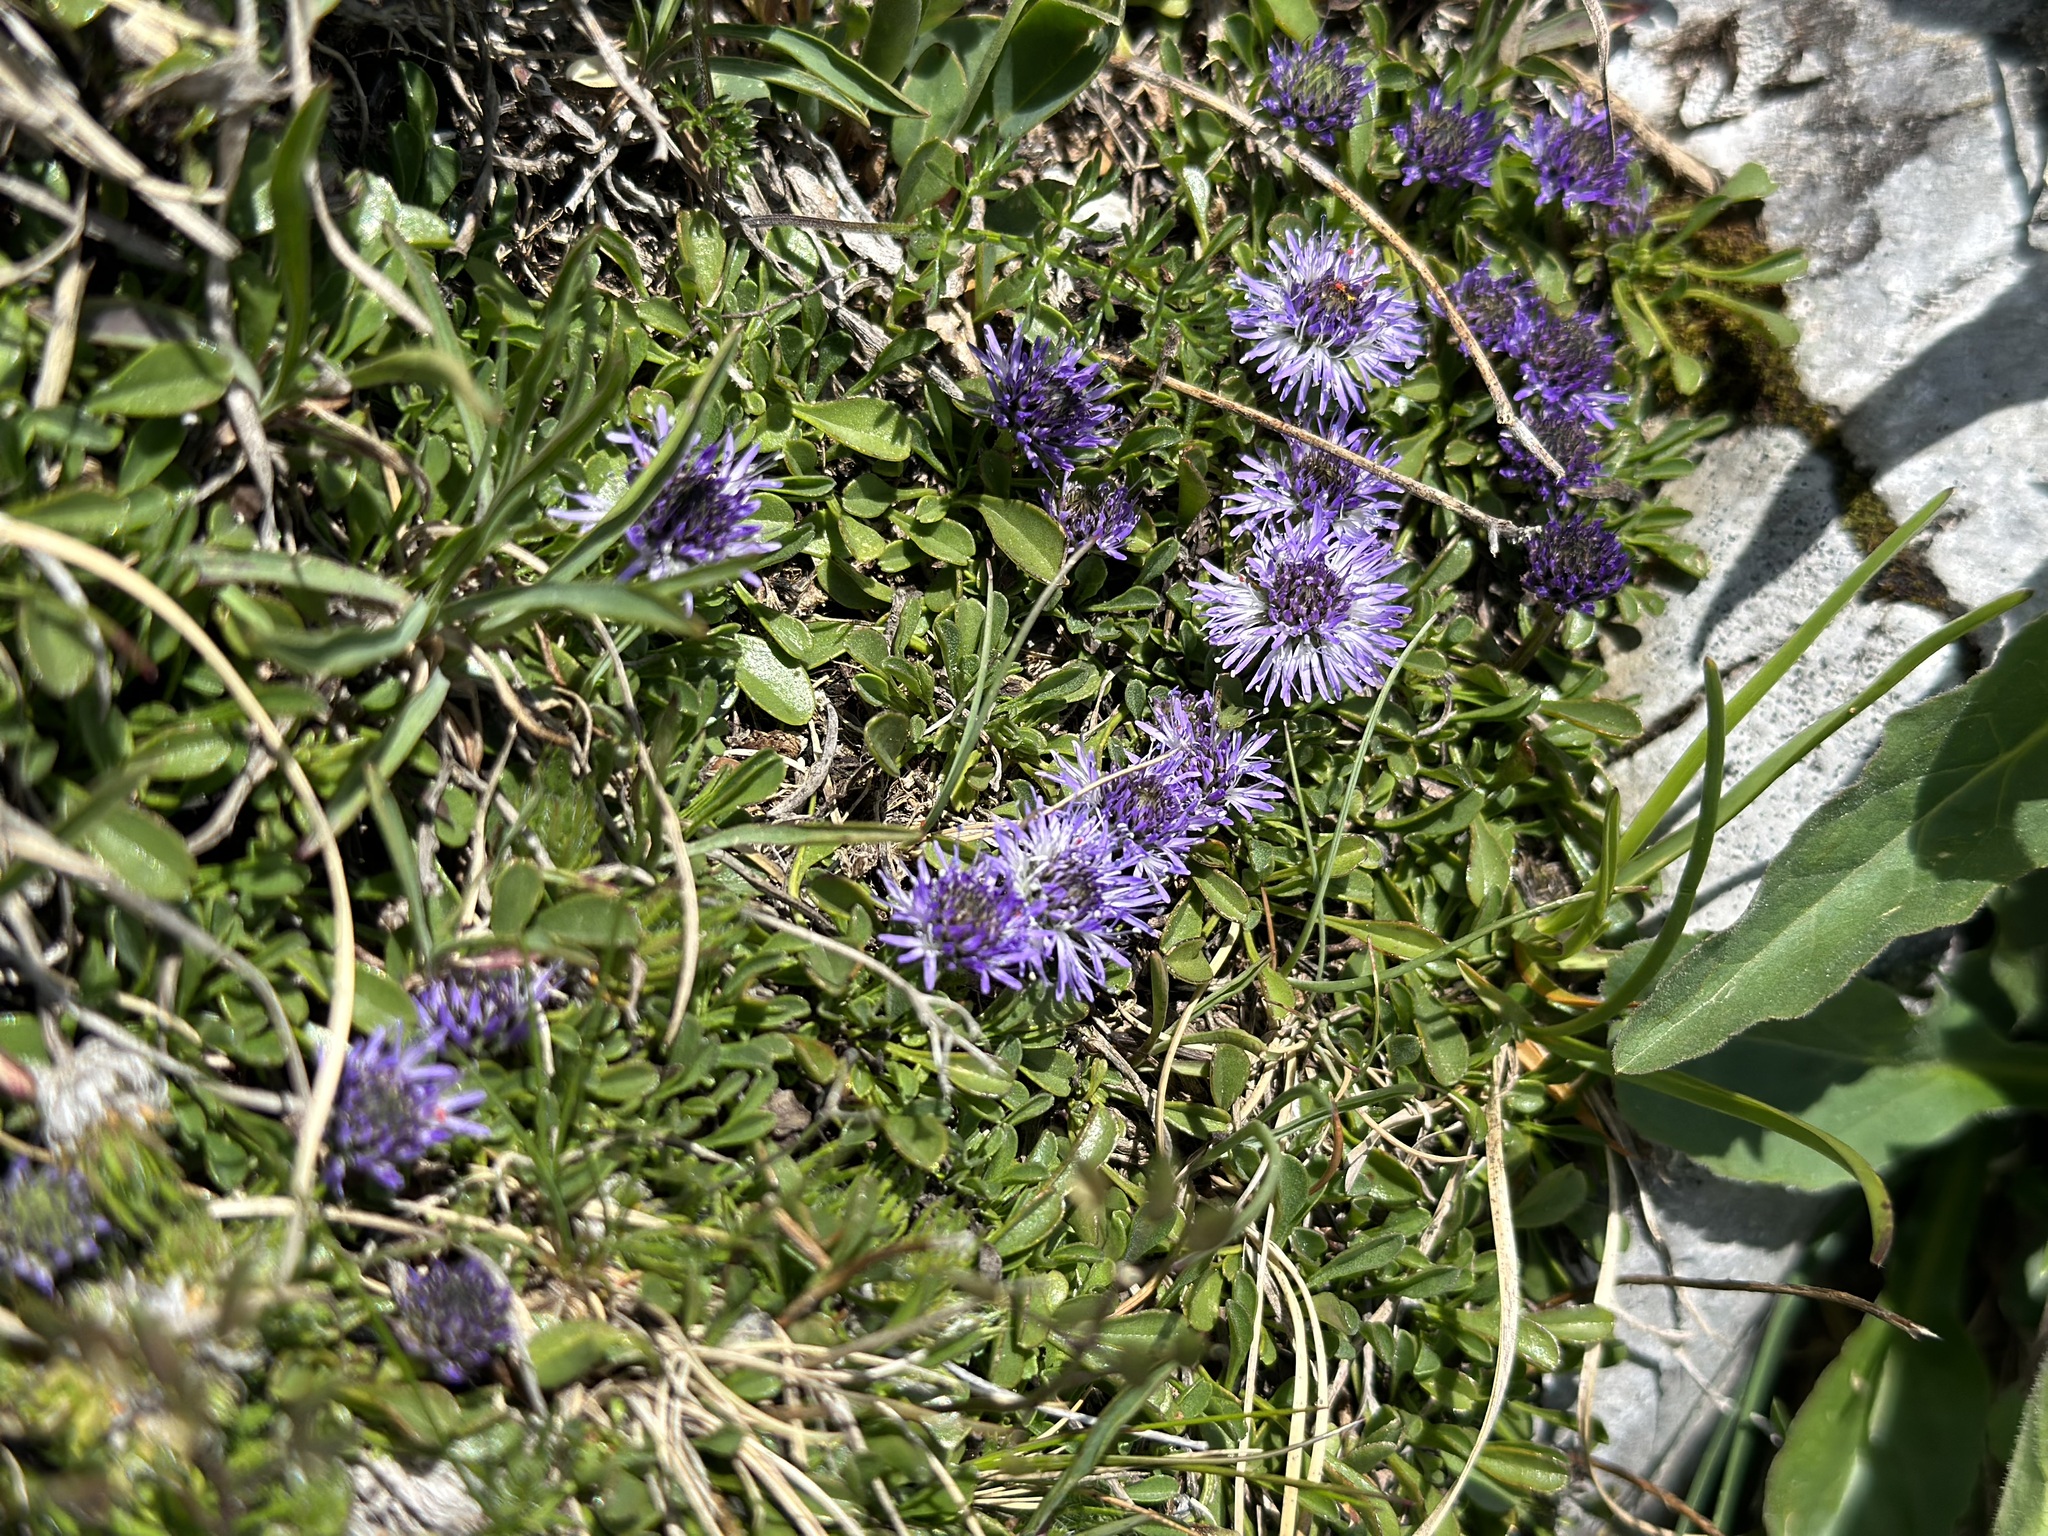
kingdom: Plantae
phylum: Tracheophyta
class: Magnoliopsida
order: Lamiales
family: Plantaginaceae
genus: Globularia
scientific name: Globularia cordifolia
